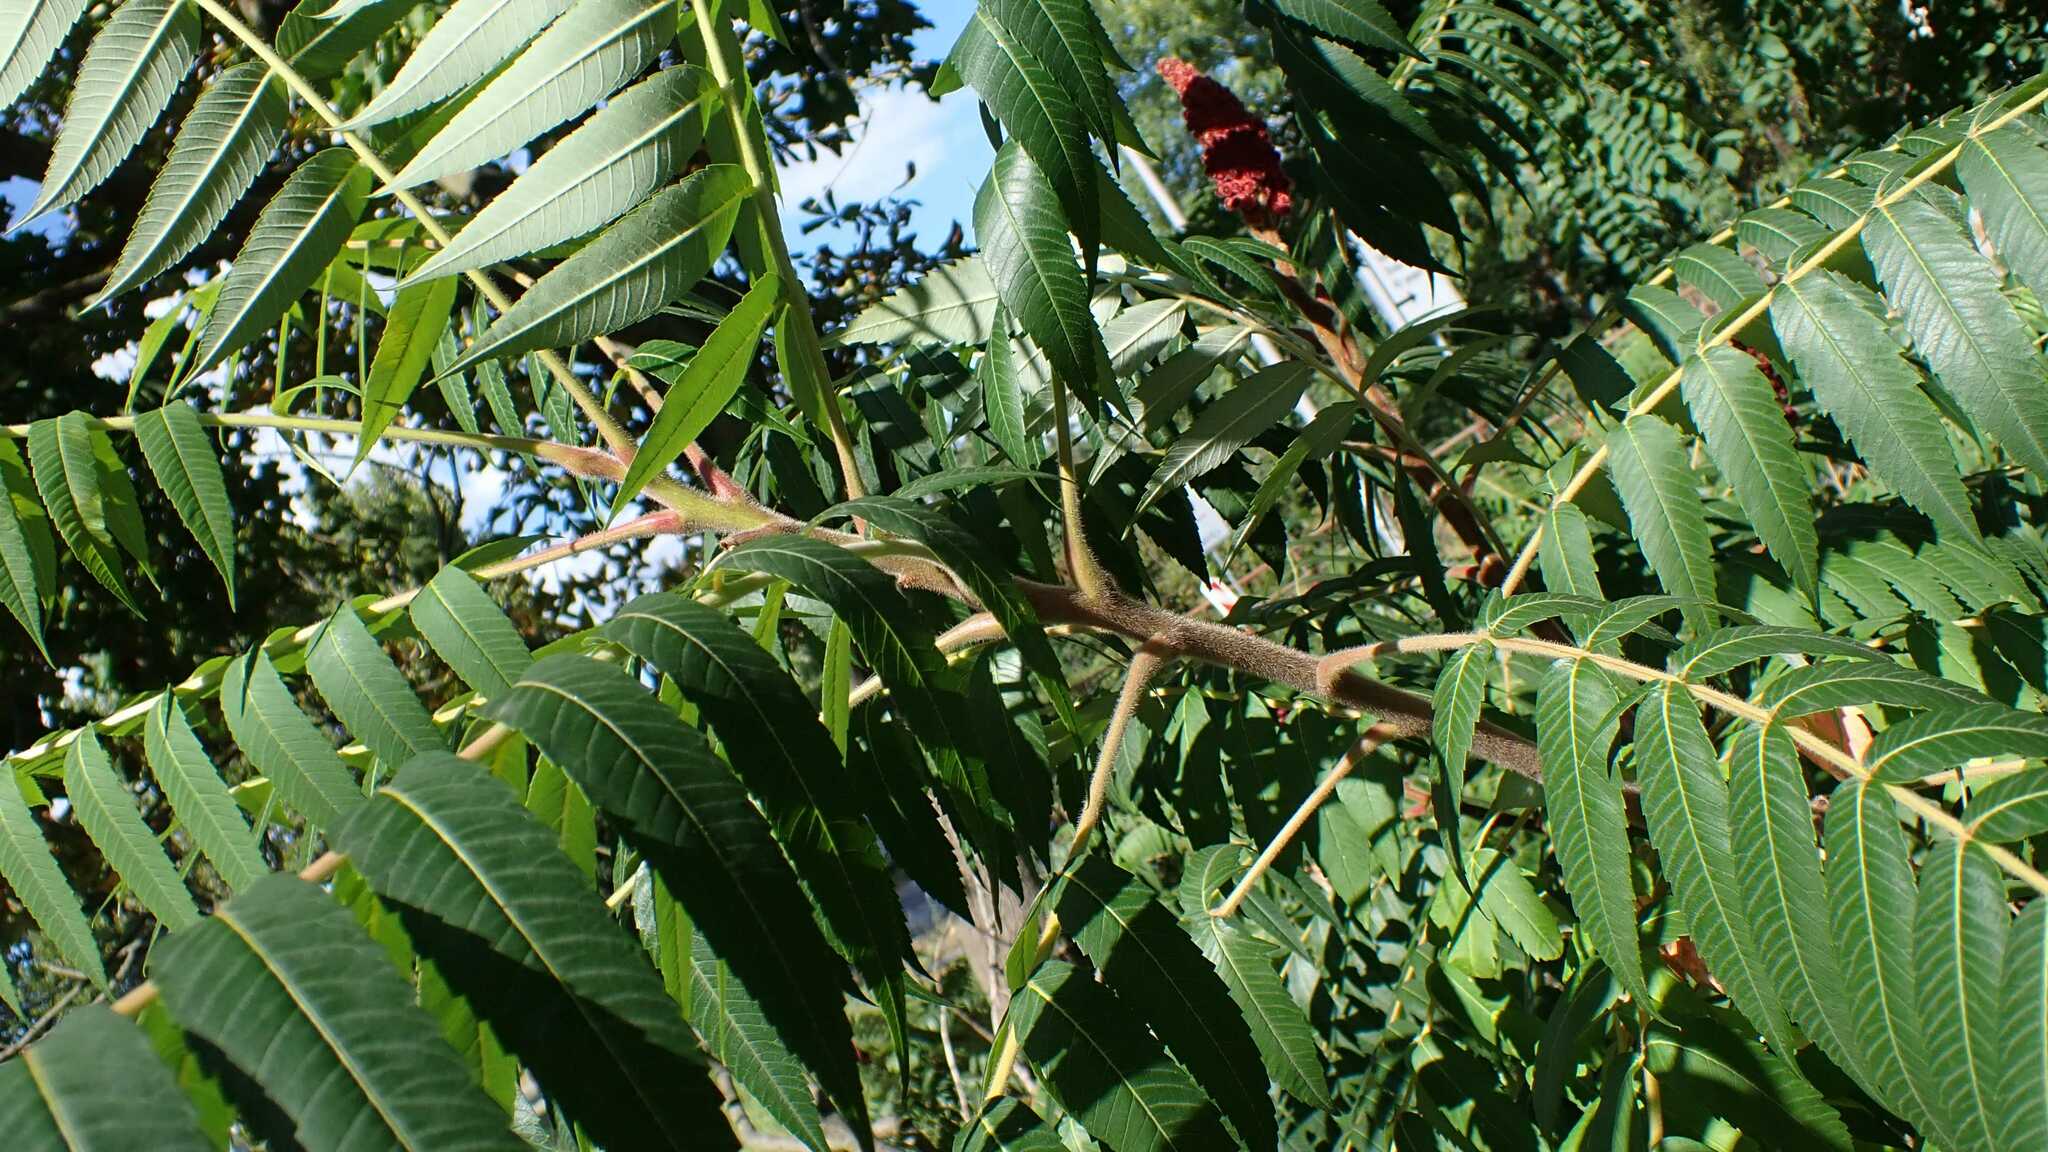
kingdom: Plantae
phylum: Tracheophyta
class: Magnoliopsida
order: Sapindales
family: Anacardiaceae
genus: Rhus
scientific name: Rhus typhina
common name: Staghorn sumac
